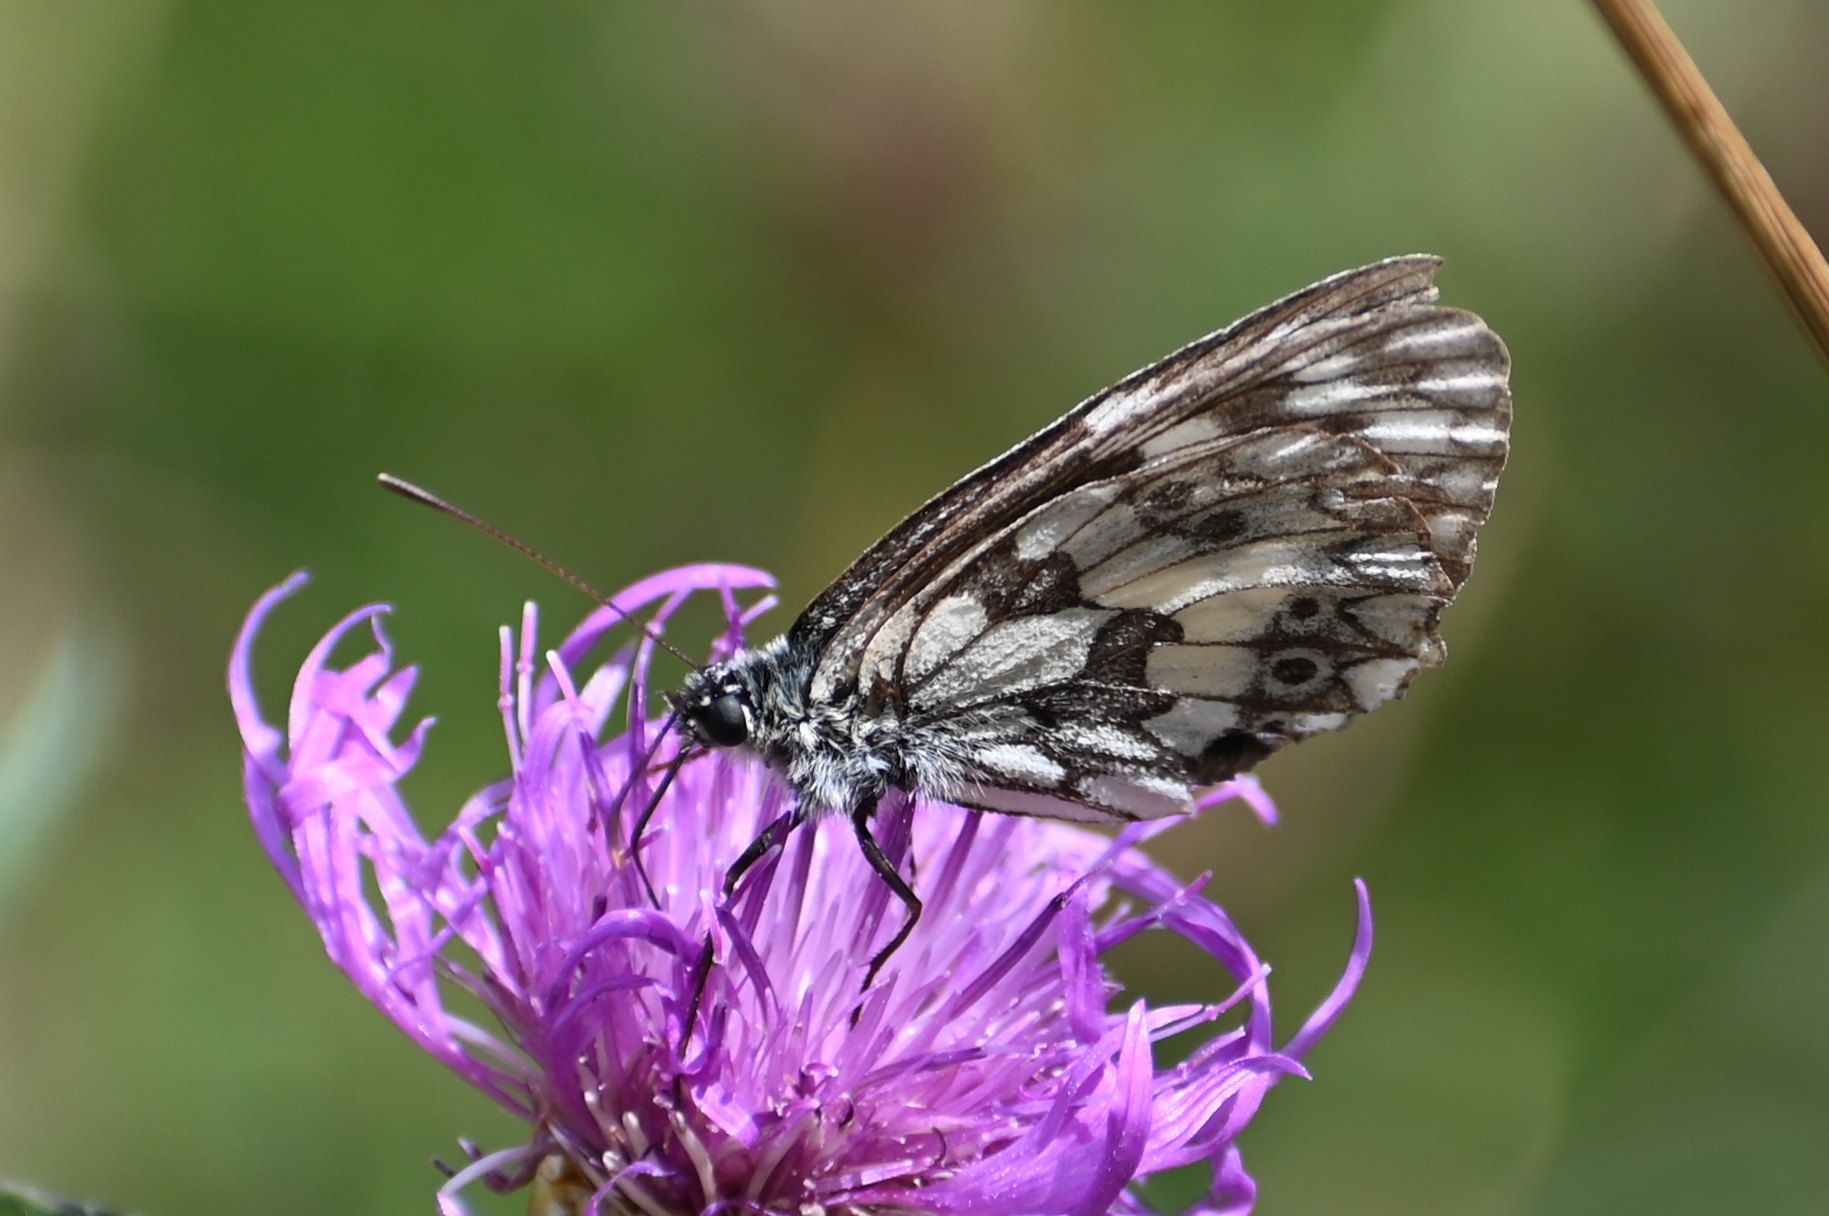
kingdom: Animalia
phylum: Arthropoda
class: Insecta
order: Lepidoptera
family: Nymphalidae
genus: Melanargia
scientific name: Melanargia galathea
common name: Marbled white
